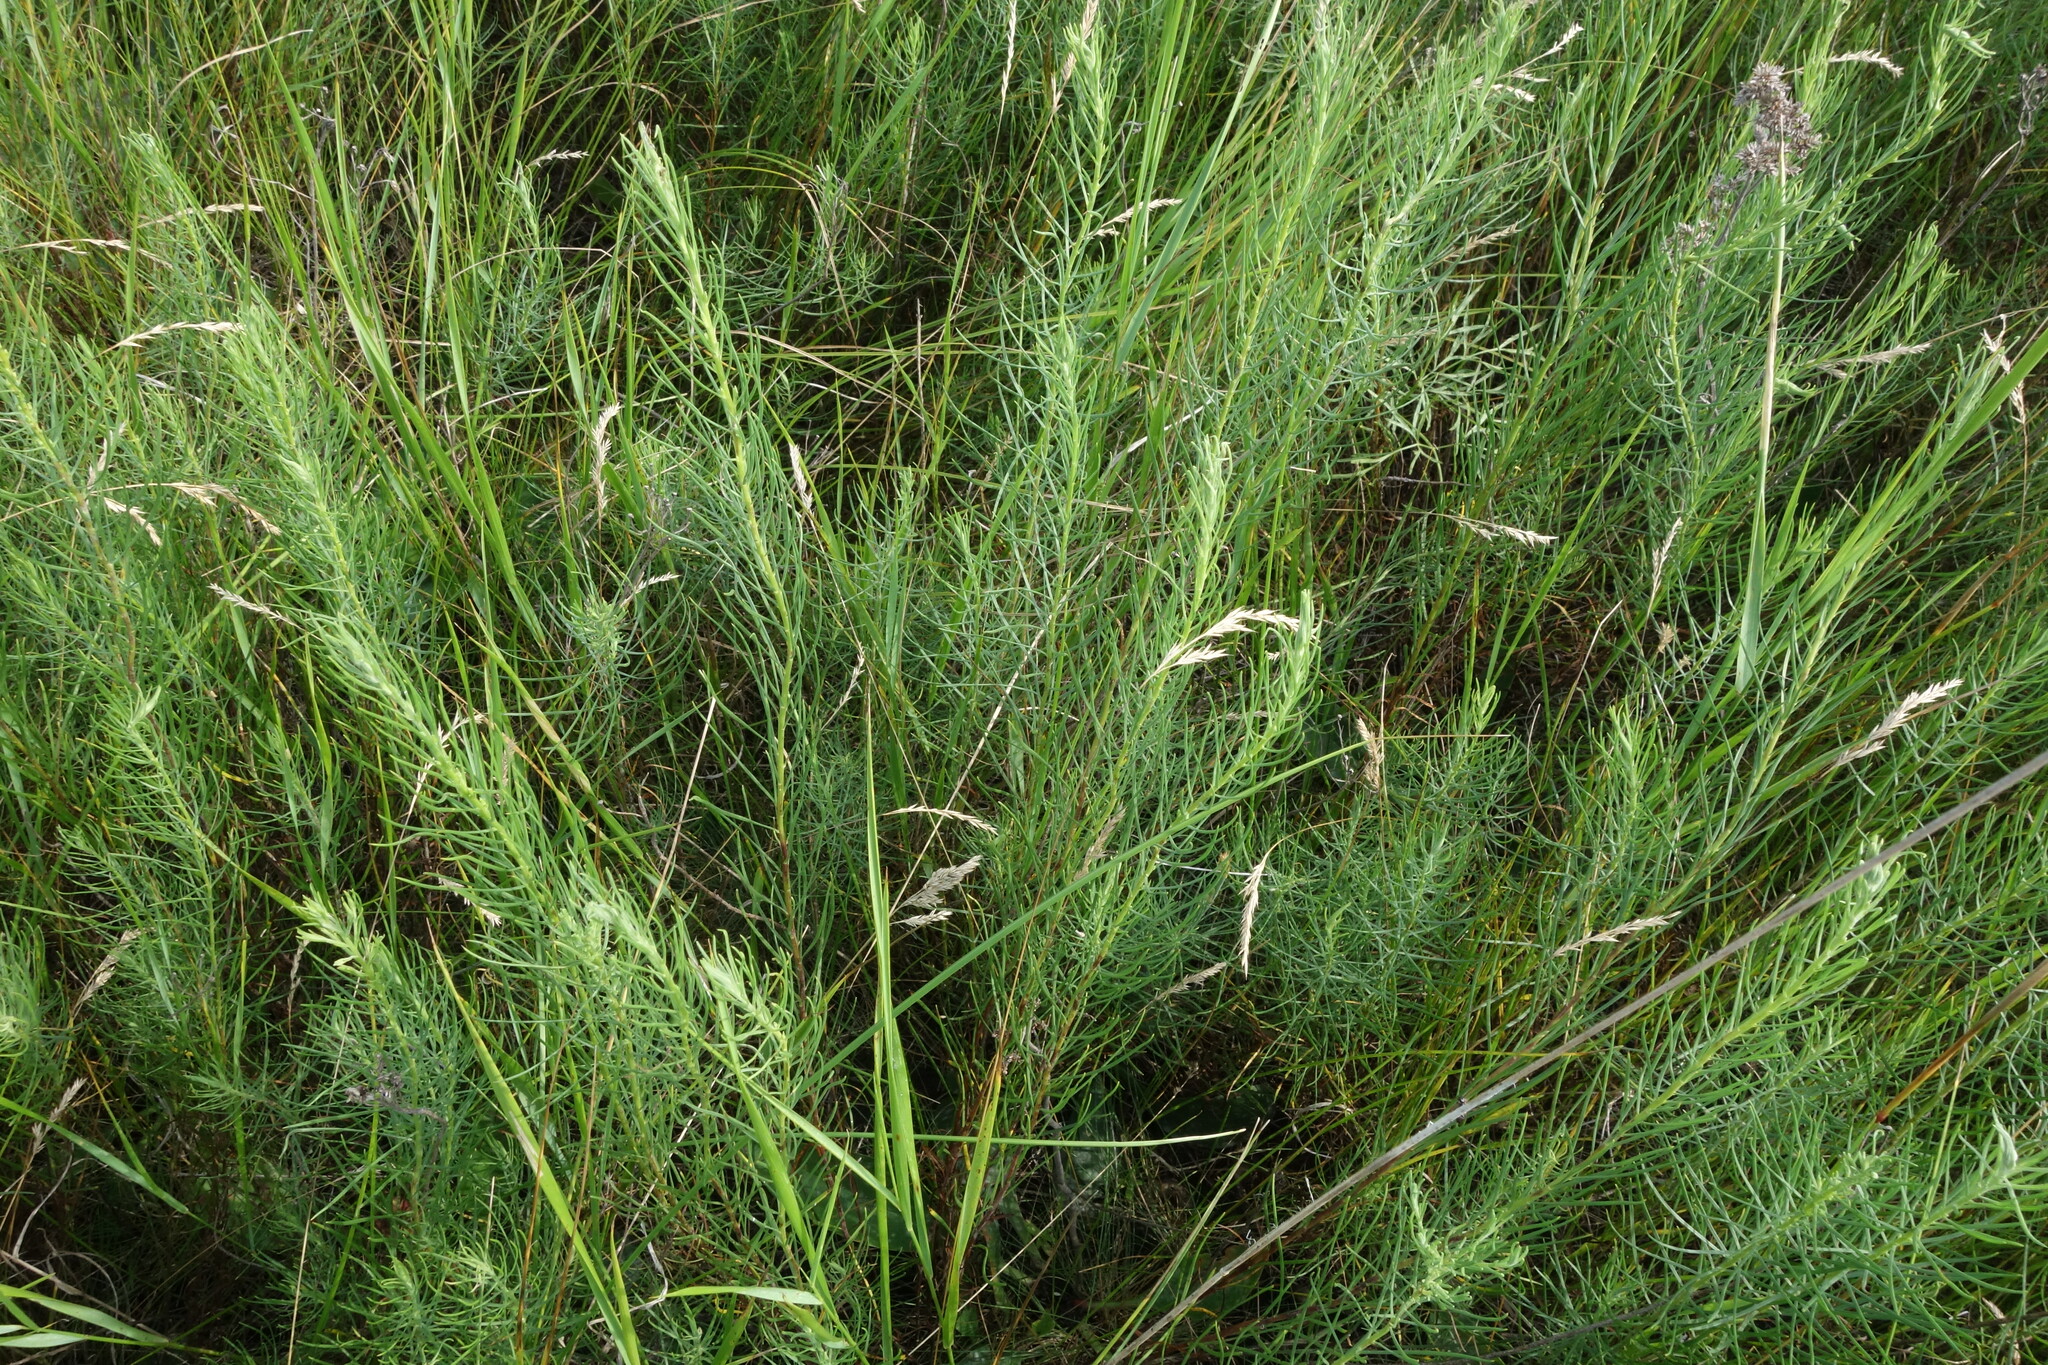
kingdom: Plantae
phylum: Tracheophyta
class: Magnoliopsida
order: Asterales
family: Asteraceae
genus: Galatella
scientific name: Galatella linosyris
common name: Goldilocks aster
